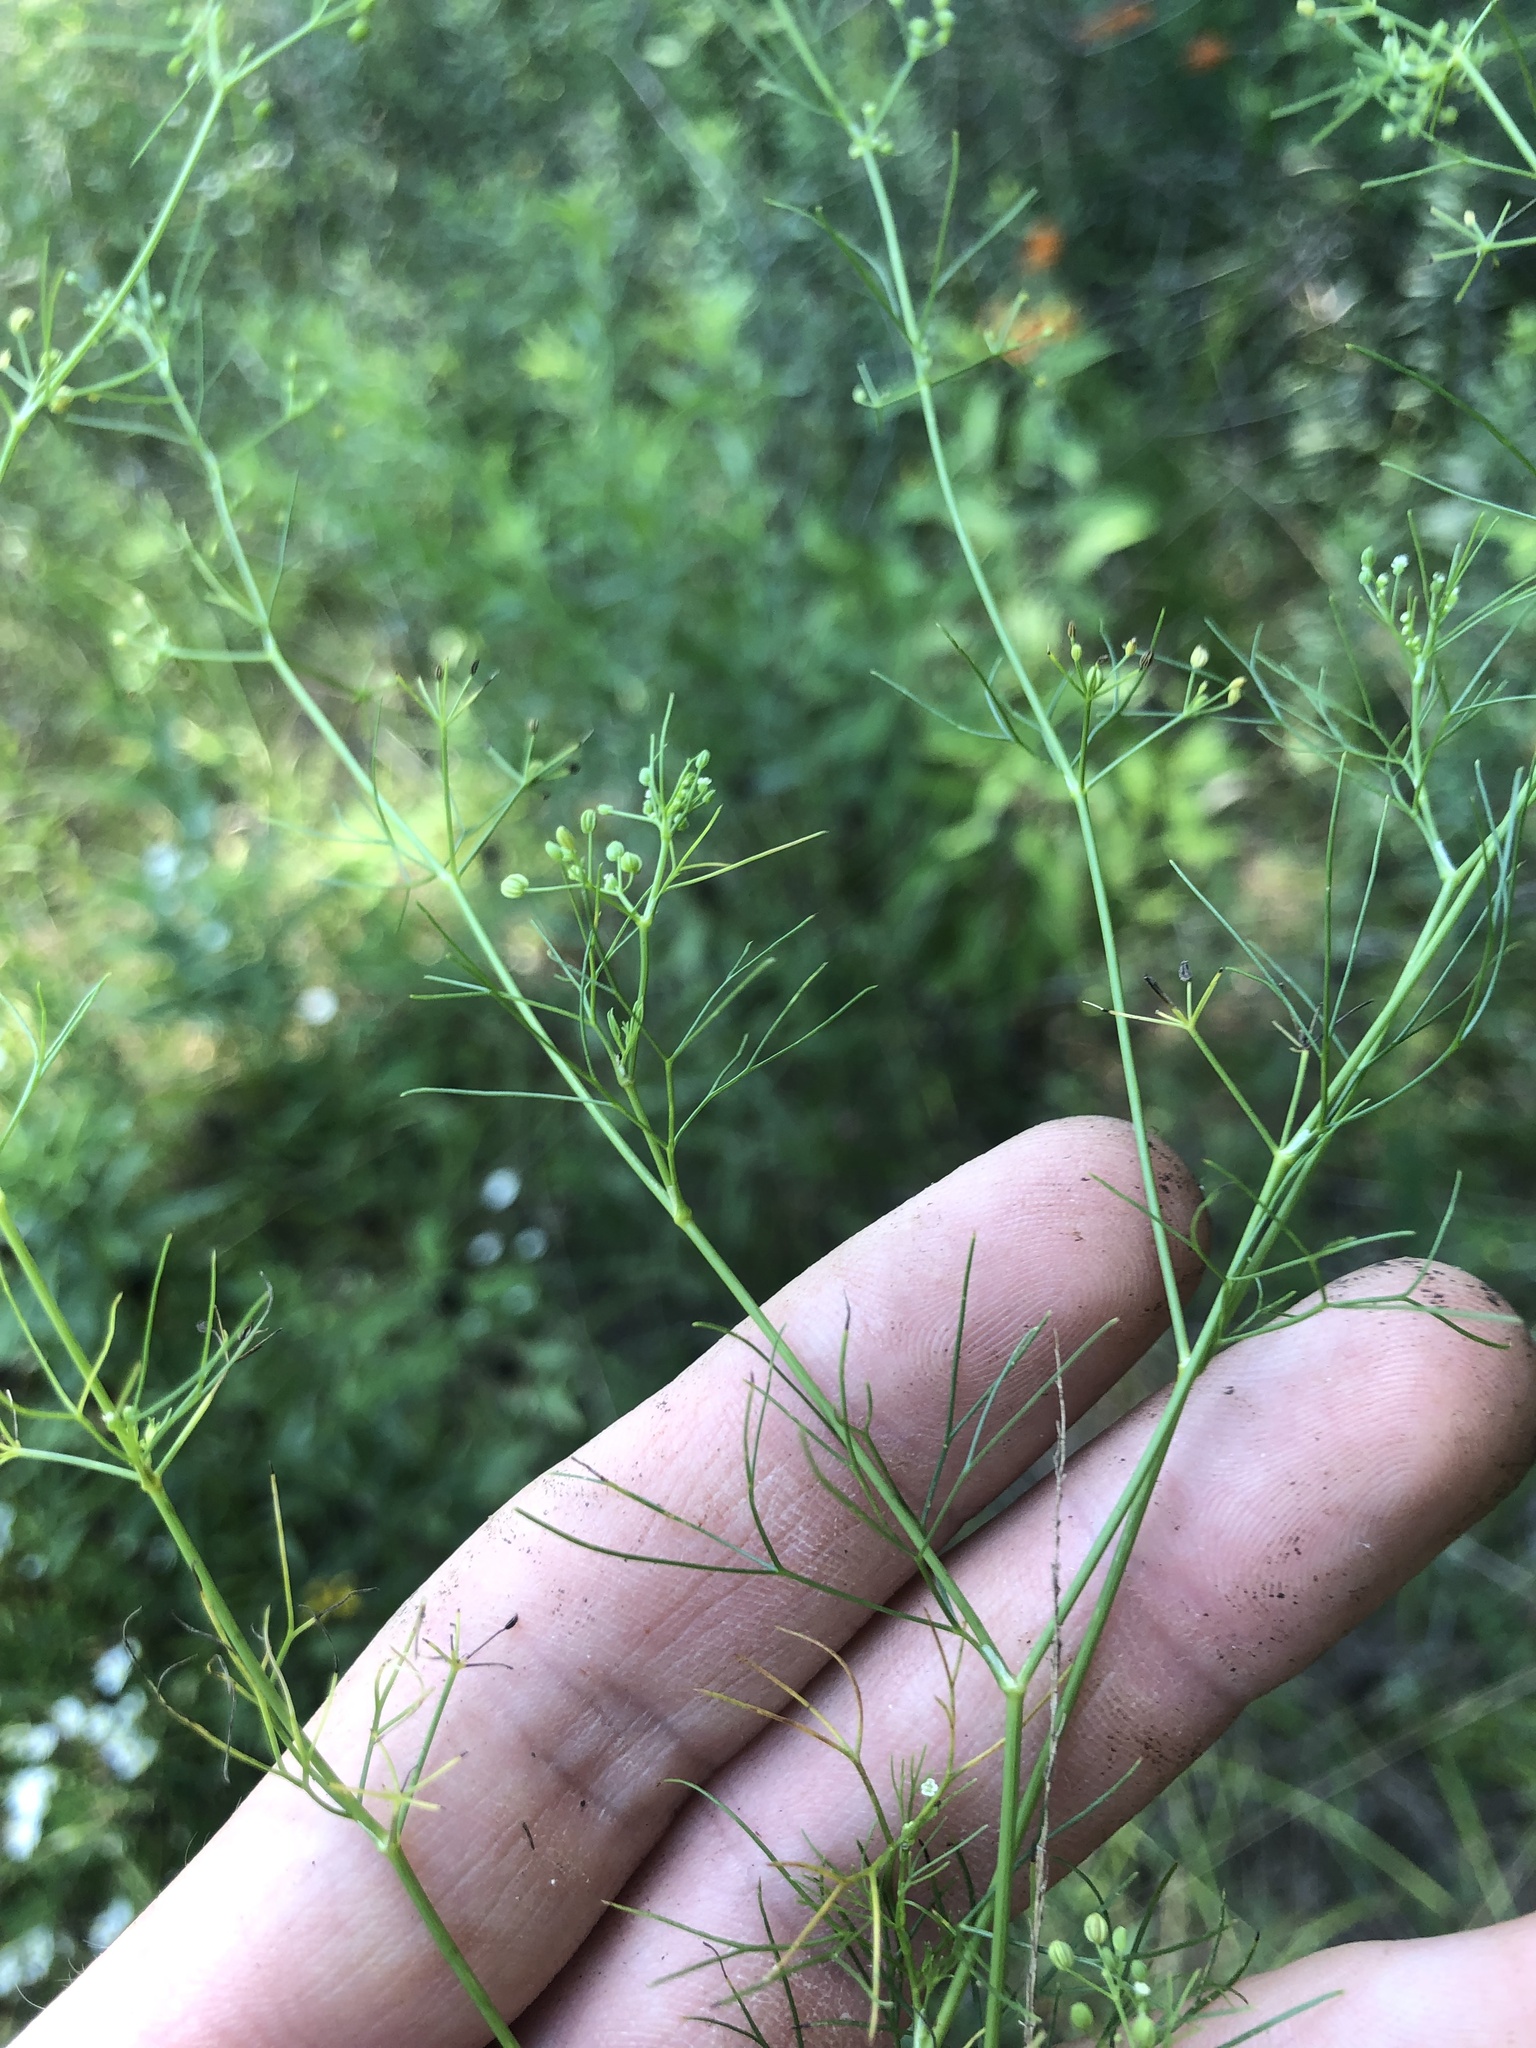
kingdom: Plantae
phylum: Tracheophyta
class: Magnoliopsida
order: Apiales
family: Apiaceae
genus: Cyclospermum
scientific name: Cyclospermum leptophyllum
